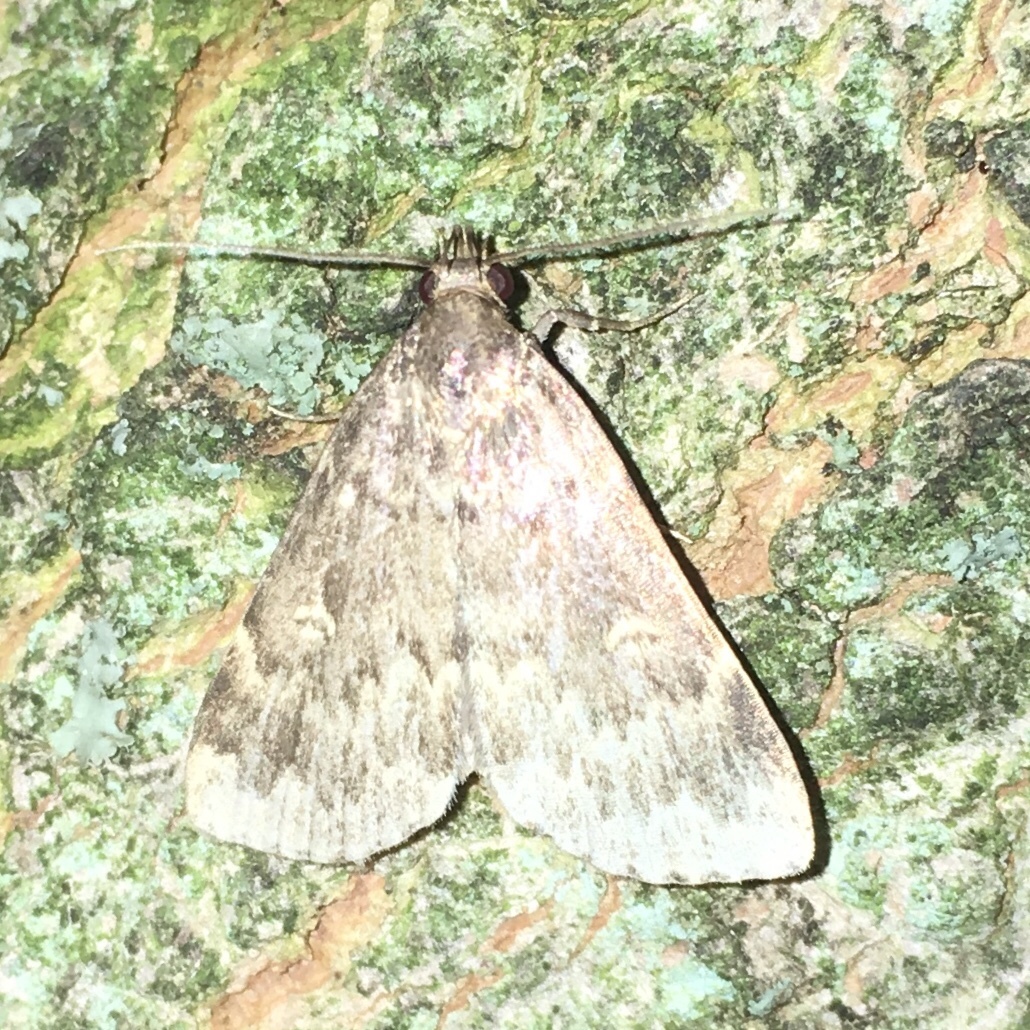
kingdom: Animalia
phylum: Arthropoda
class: Insecta
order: Lepidoptera
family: Erebidae
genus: Idia
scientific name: Idia lubricalis
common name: Twin-striped tabby
